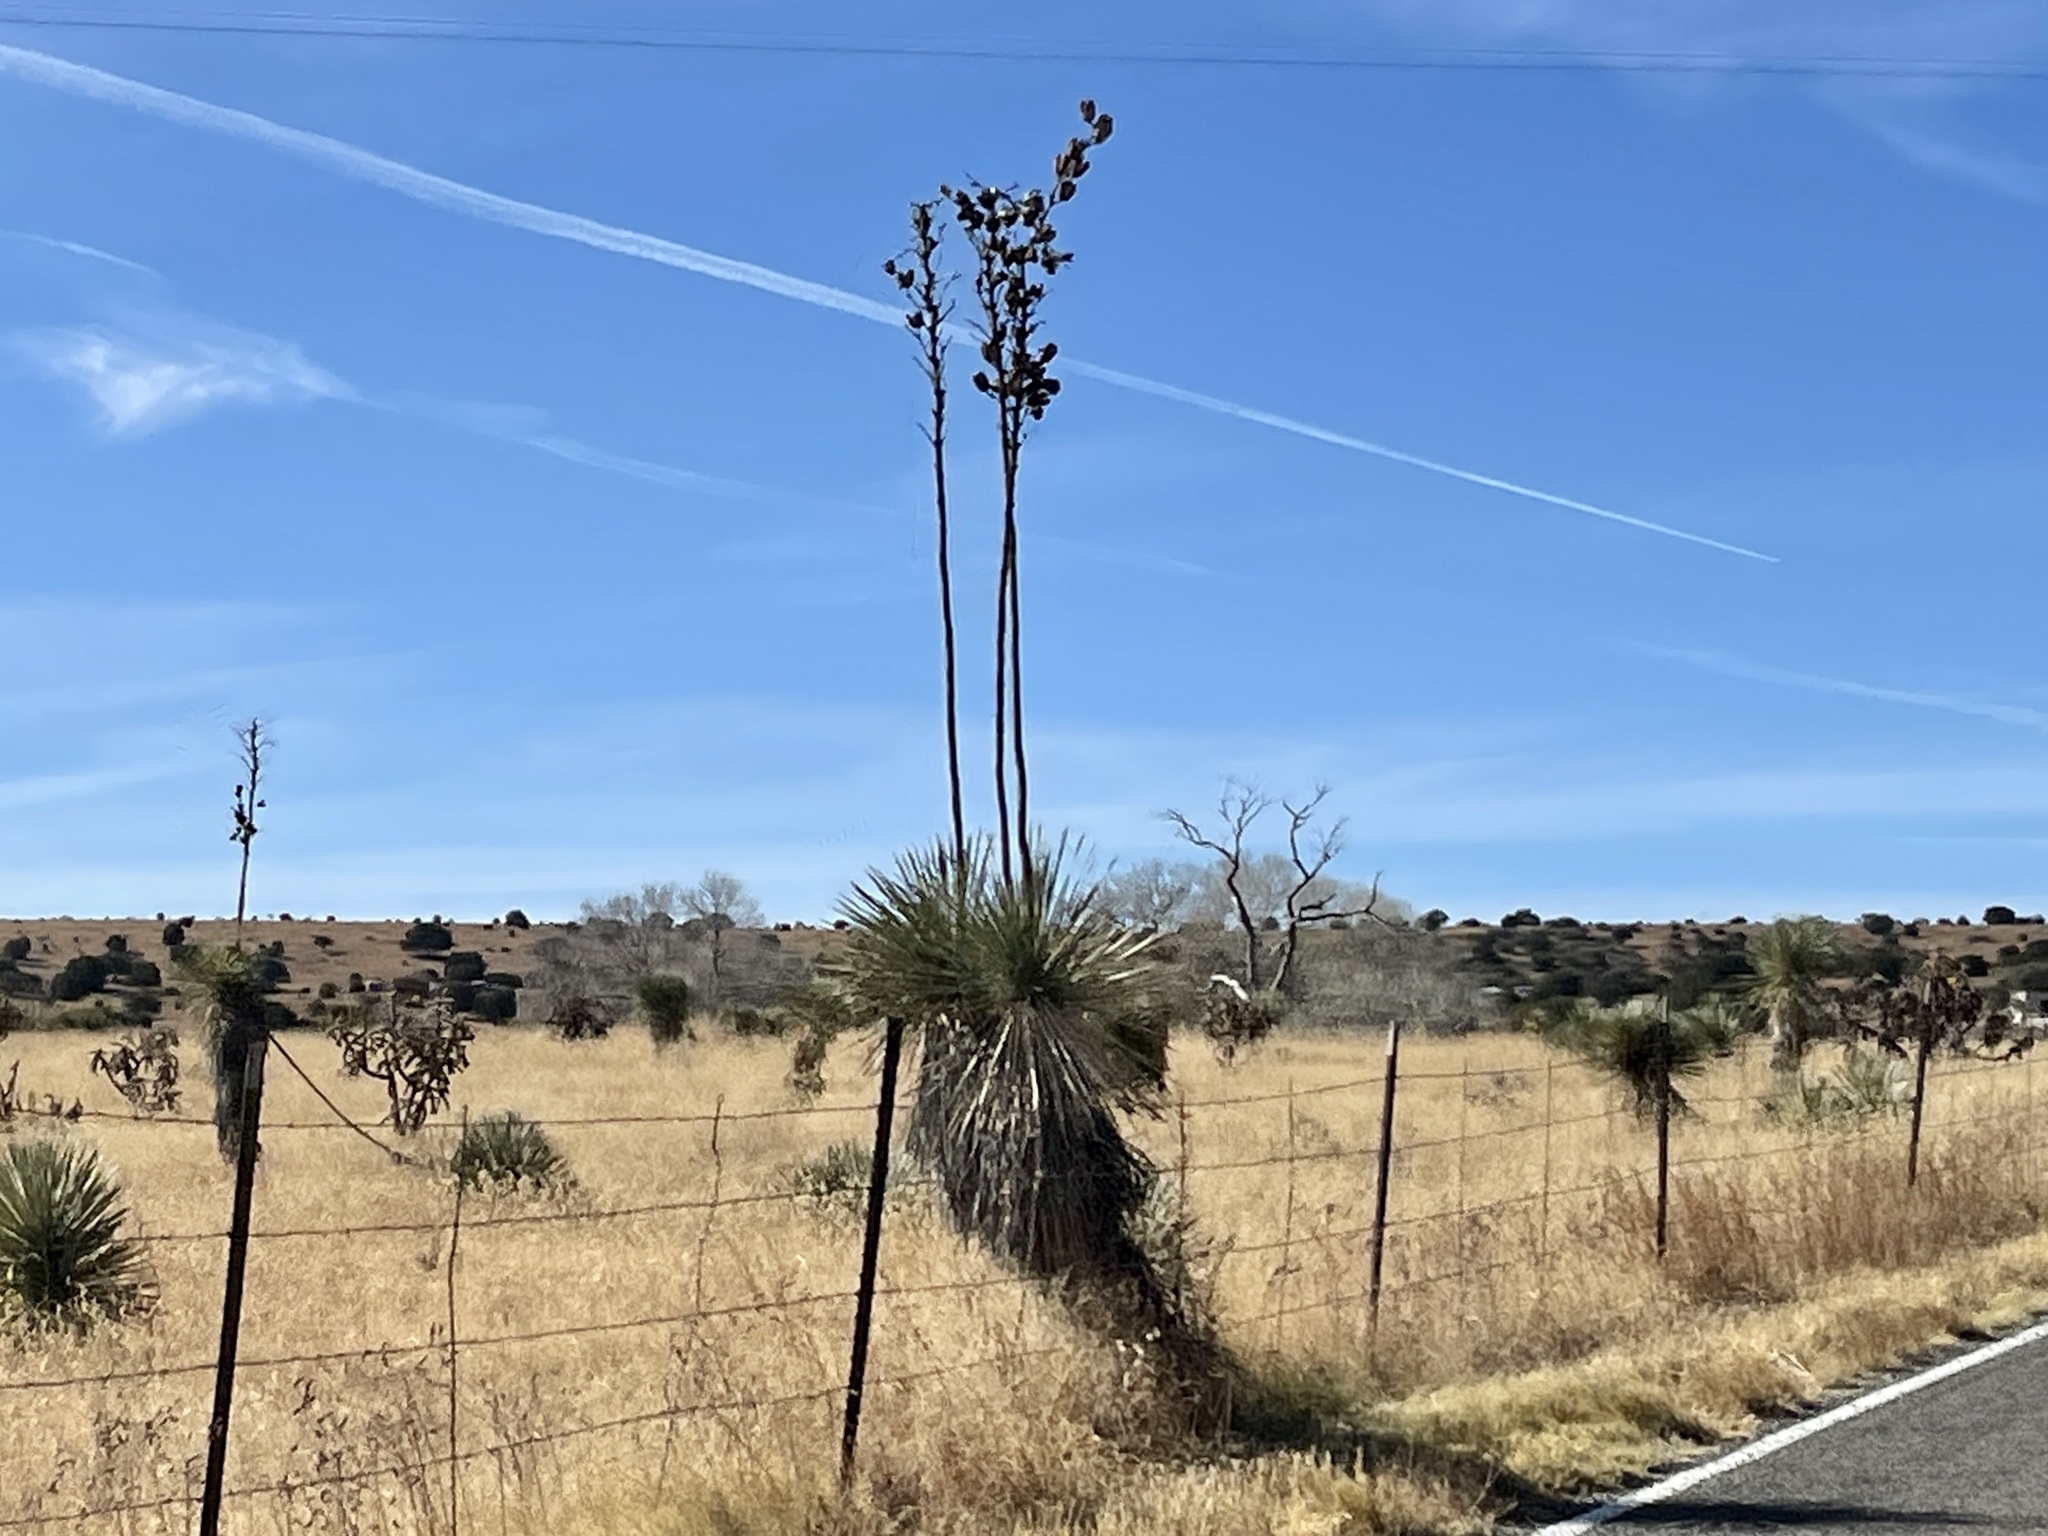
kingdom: Plantae
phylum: Tracheophyta
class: Liliopsida
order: Asparagales
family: Asparagaceae
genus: Yucca
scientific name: Yucca elata
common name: Palmella
